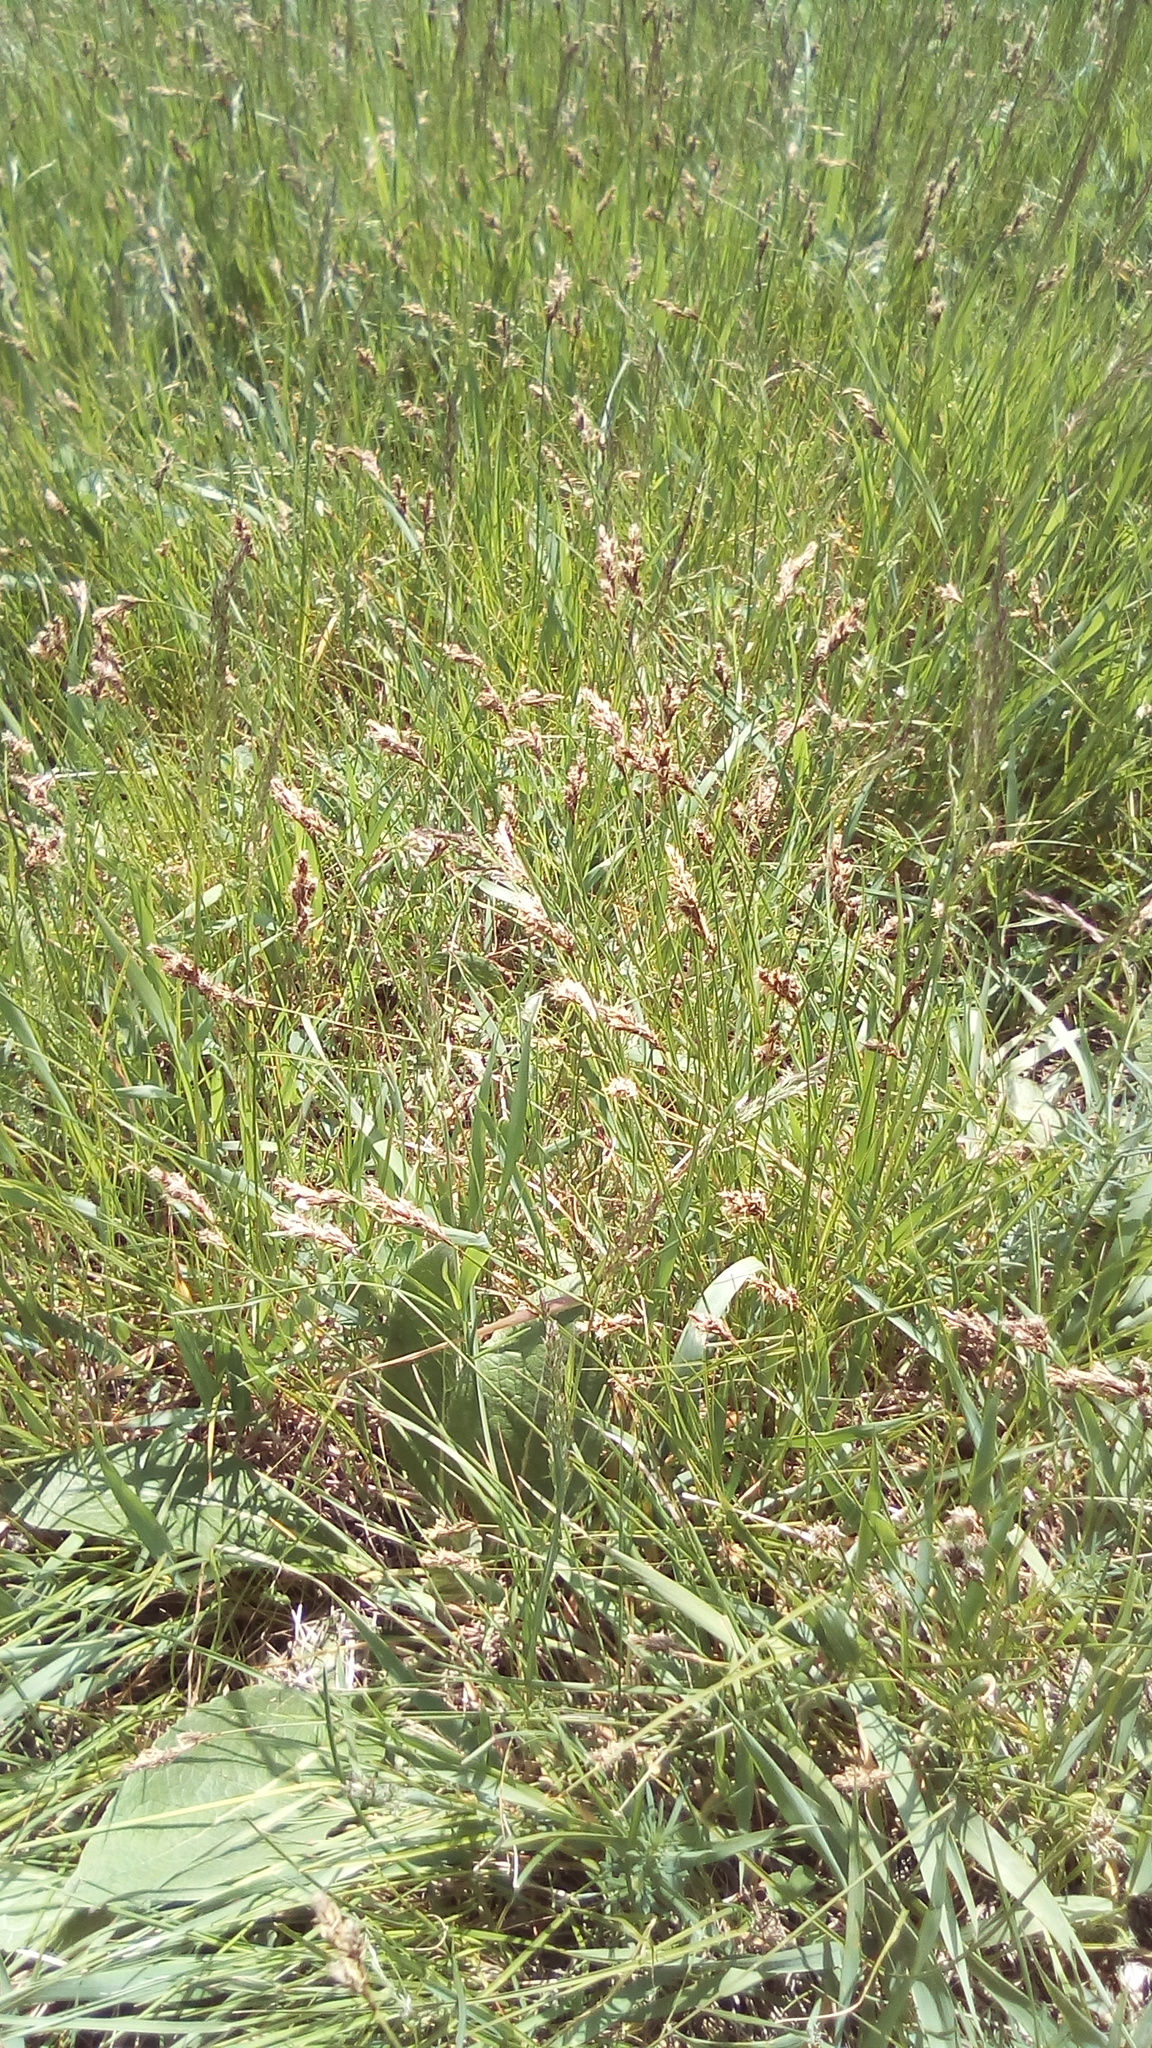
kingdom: Plantae
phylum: Tracheophyta
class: Liliopsida
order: Poales
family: Cyperaceae
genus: Carex
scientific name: Carex praecox
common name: Early sedge
